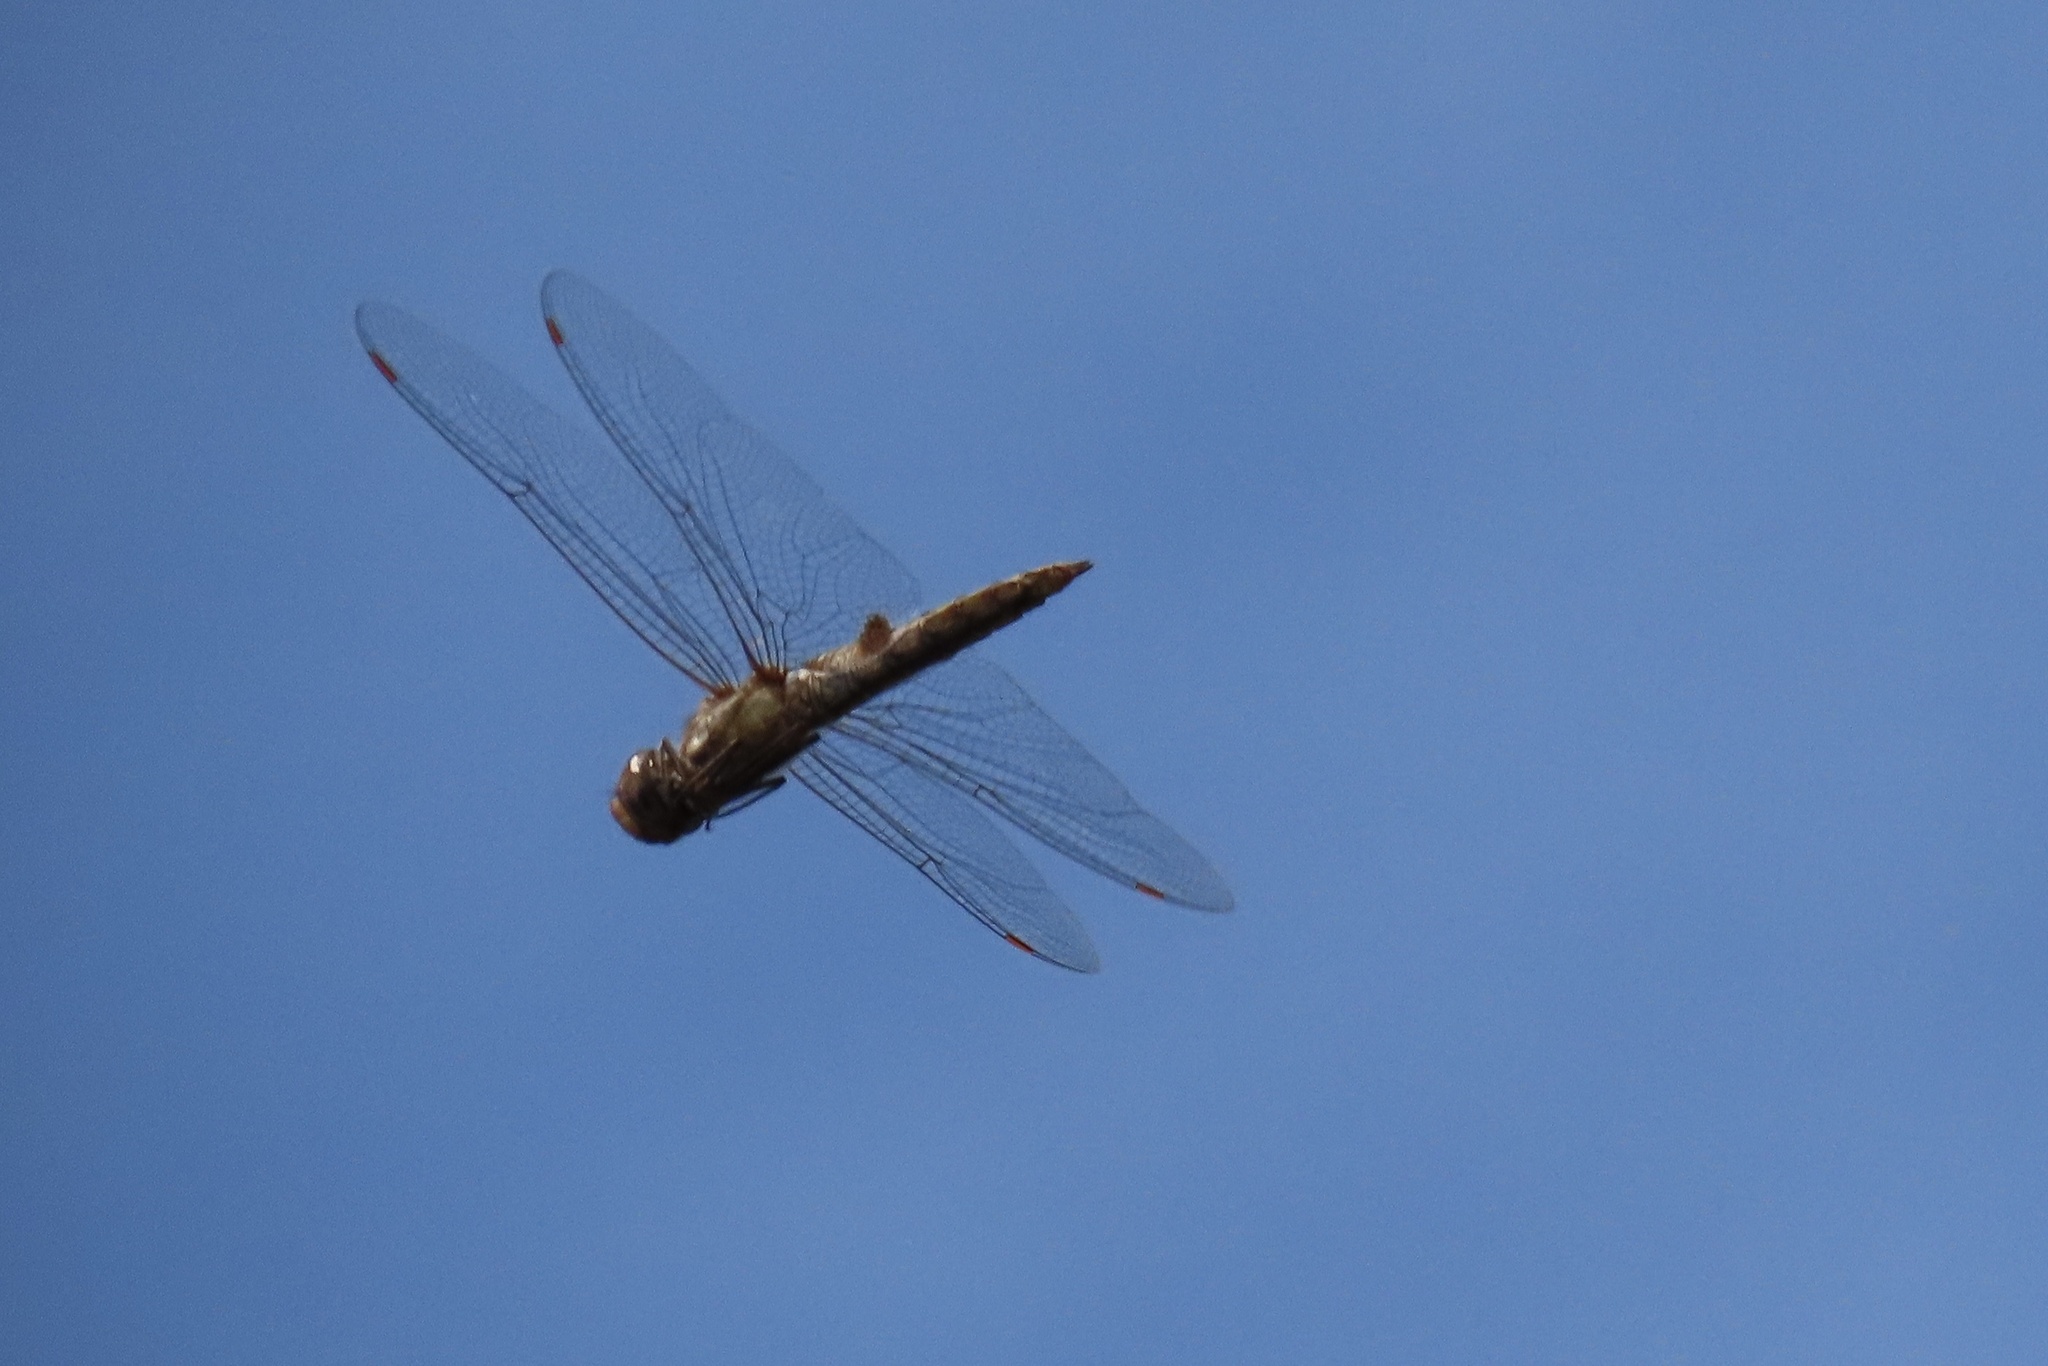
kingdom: Animalia
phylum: Arthropoda
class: Insecta
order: Odonata
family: Libellulidae
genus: Pantala
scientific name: Pantala hymenaea
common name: Spot-winged glider
